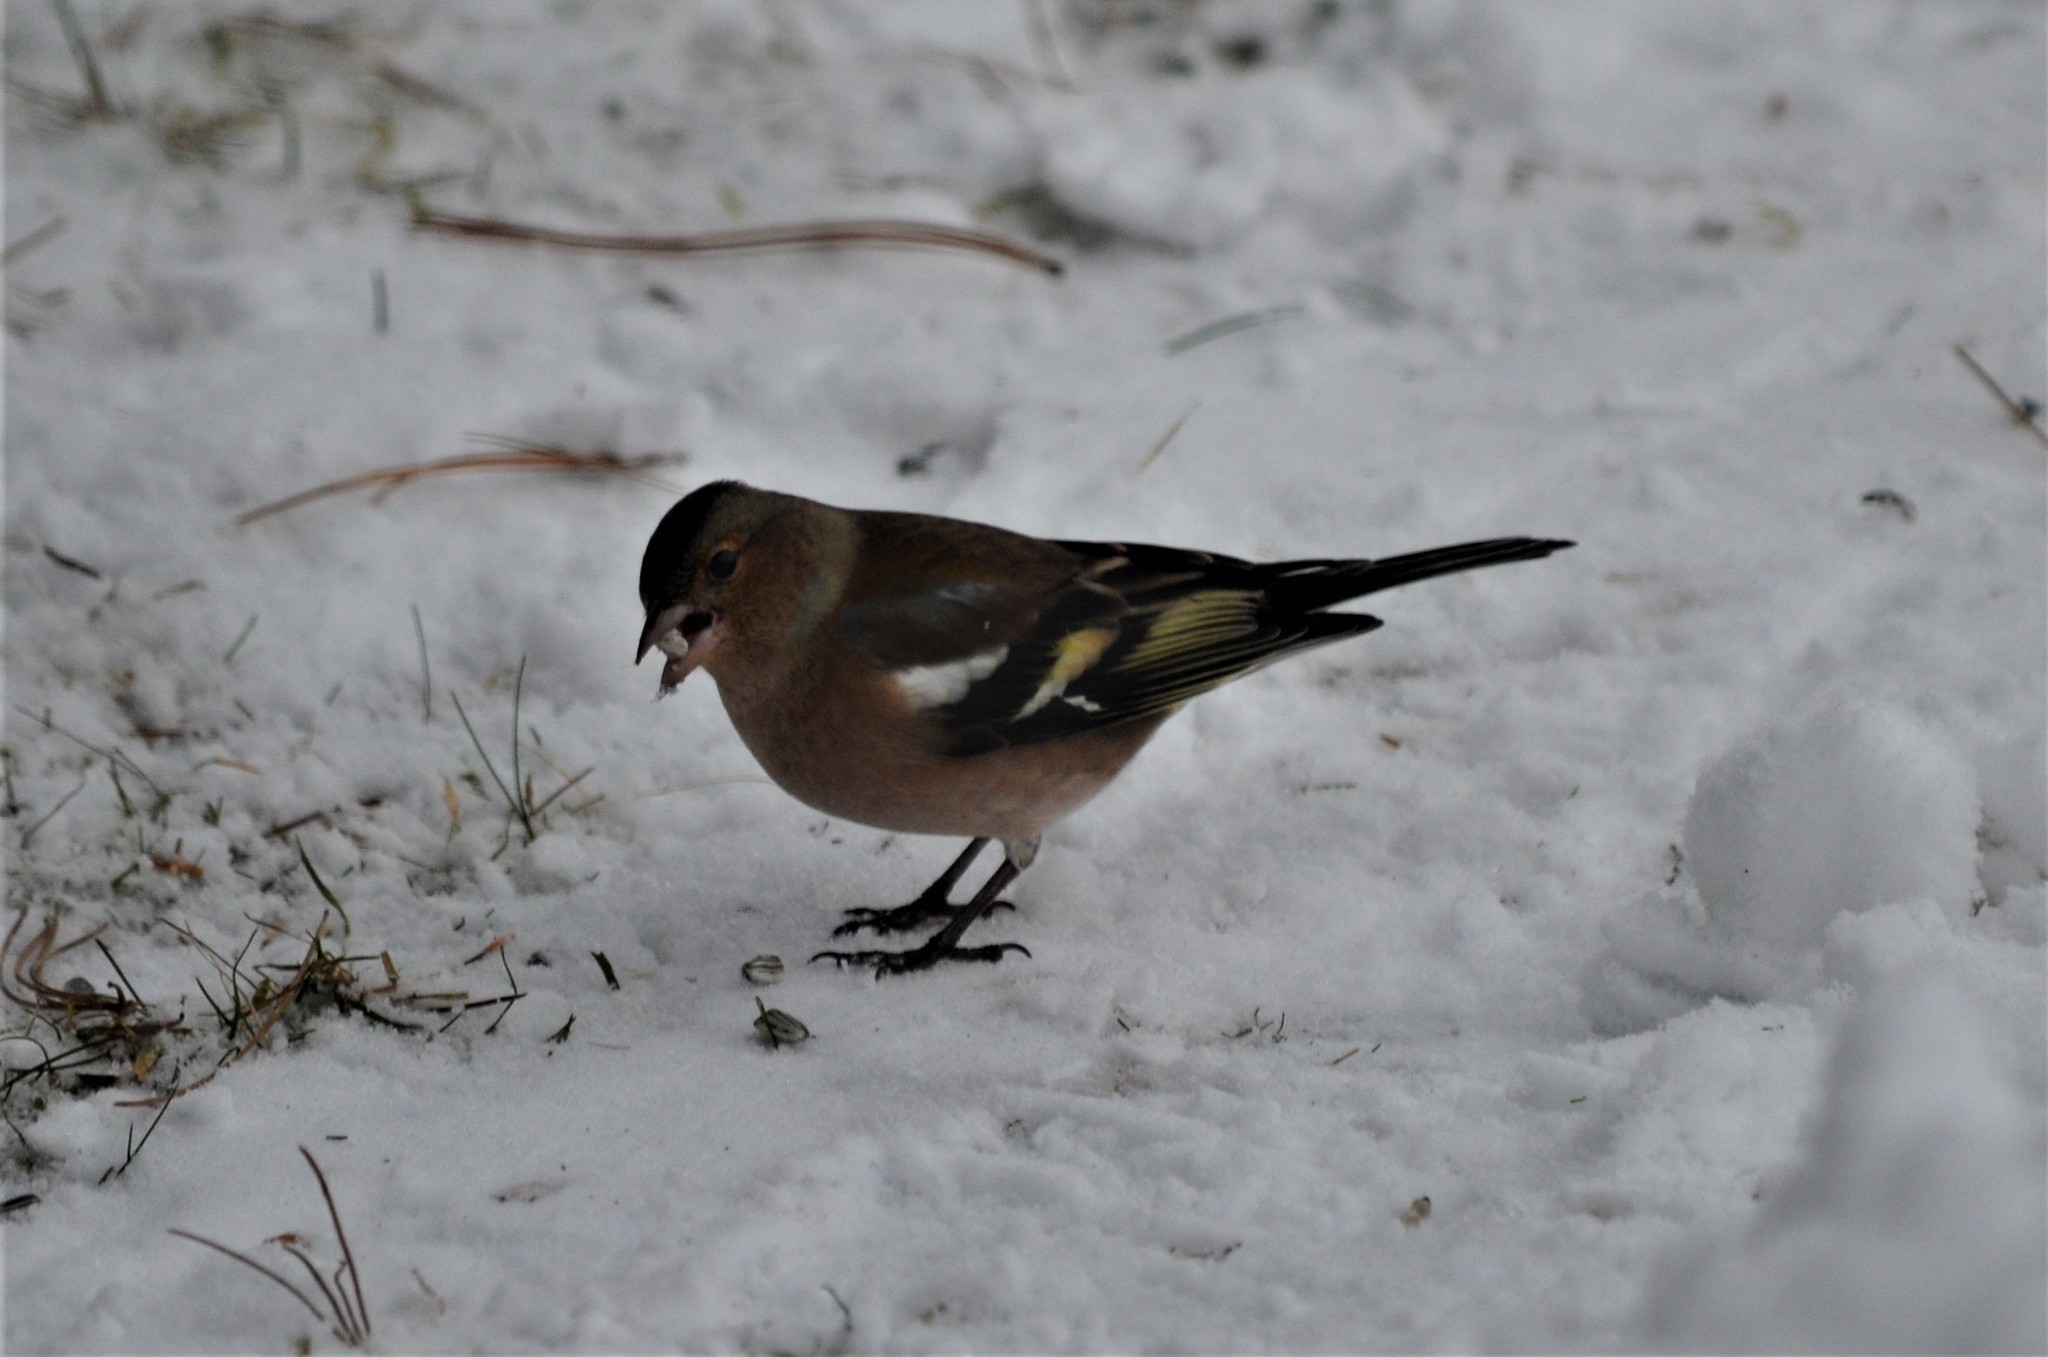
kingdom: Animalia
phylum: Chordata
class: Aves
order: Passeriformes
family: Fringillidae
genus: Fringilla
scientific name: Fringilla coelebs
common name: Common chaffinch
